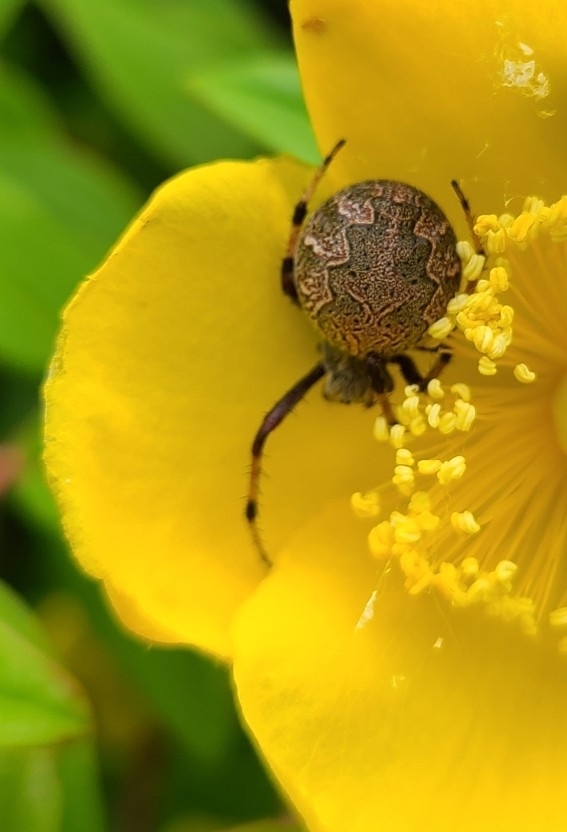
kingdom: Animalia
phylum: Arthropoda
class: Arachnida
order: Araneae
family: Araneidae
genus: Salsa
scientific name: Salsa fuliginata
